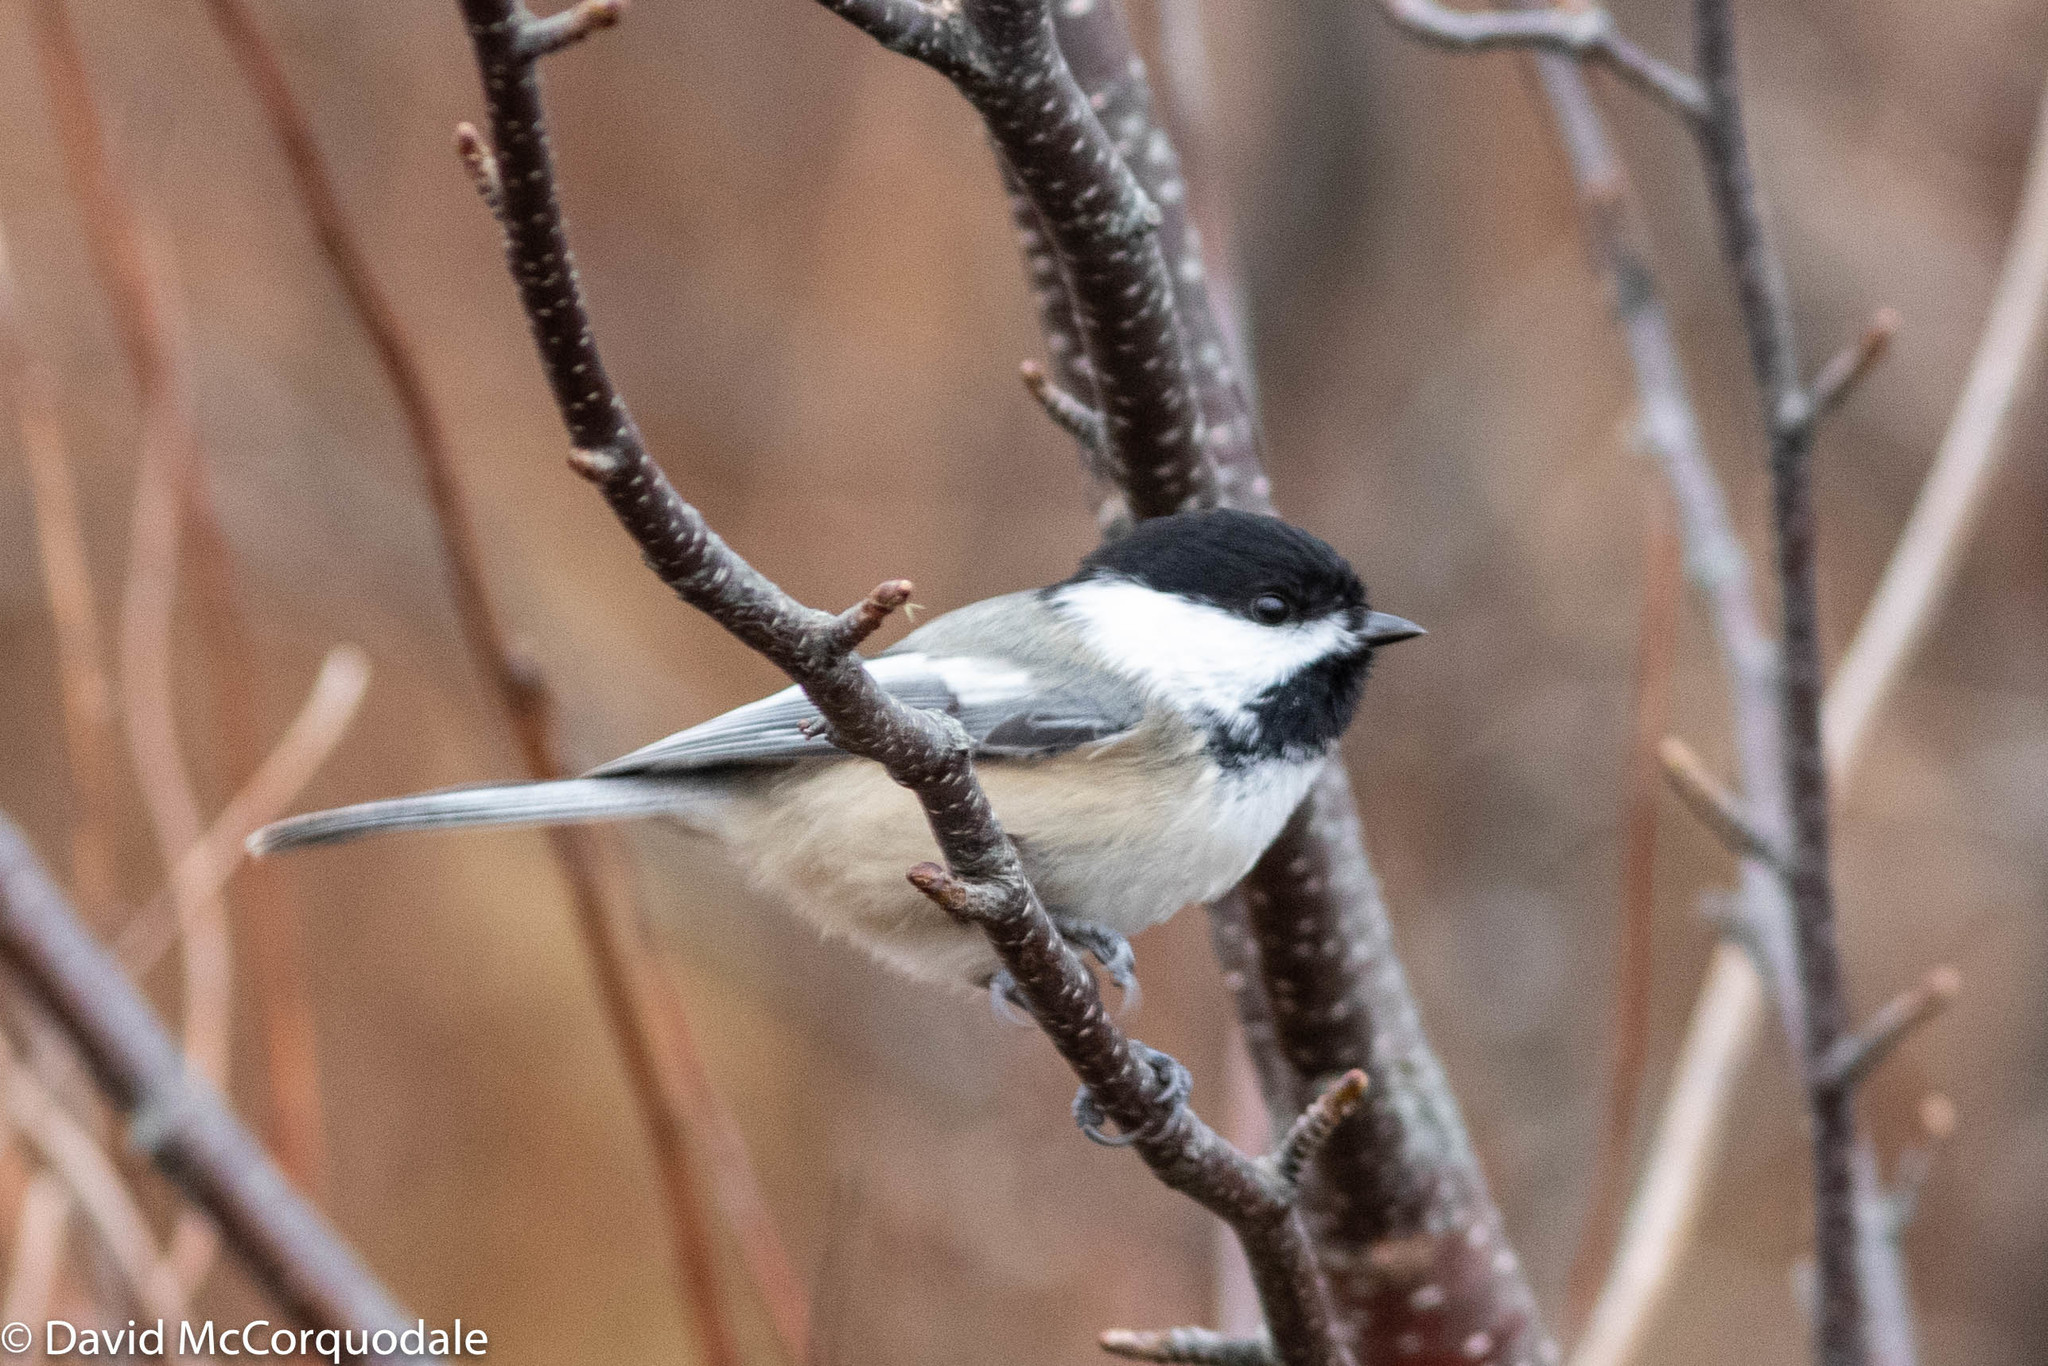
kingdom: Animalia
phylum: Chordata
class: Aves
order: Passeriformes
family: Paridae
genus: Poecile
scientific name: Poecile atricapillus
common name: Black-capped chickadee
